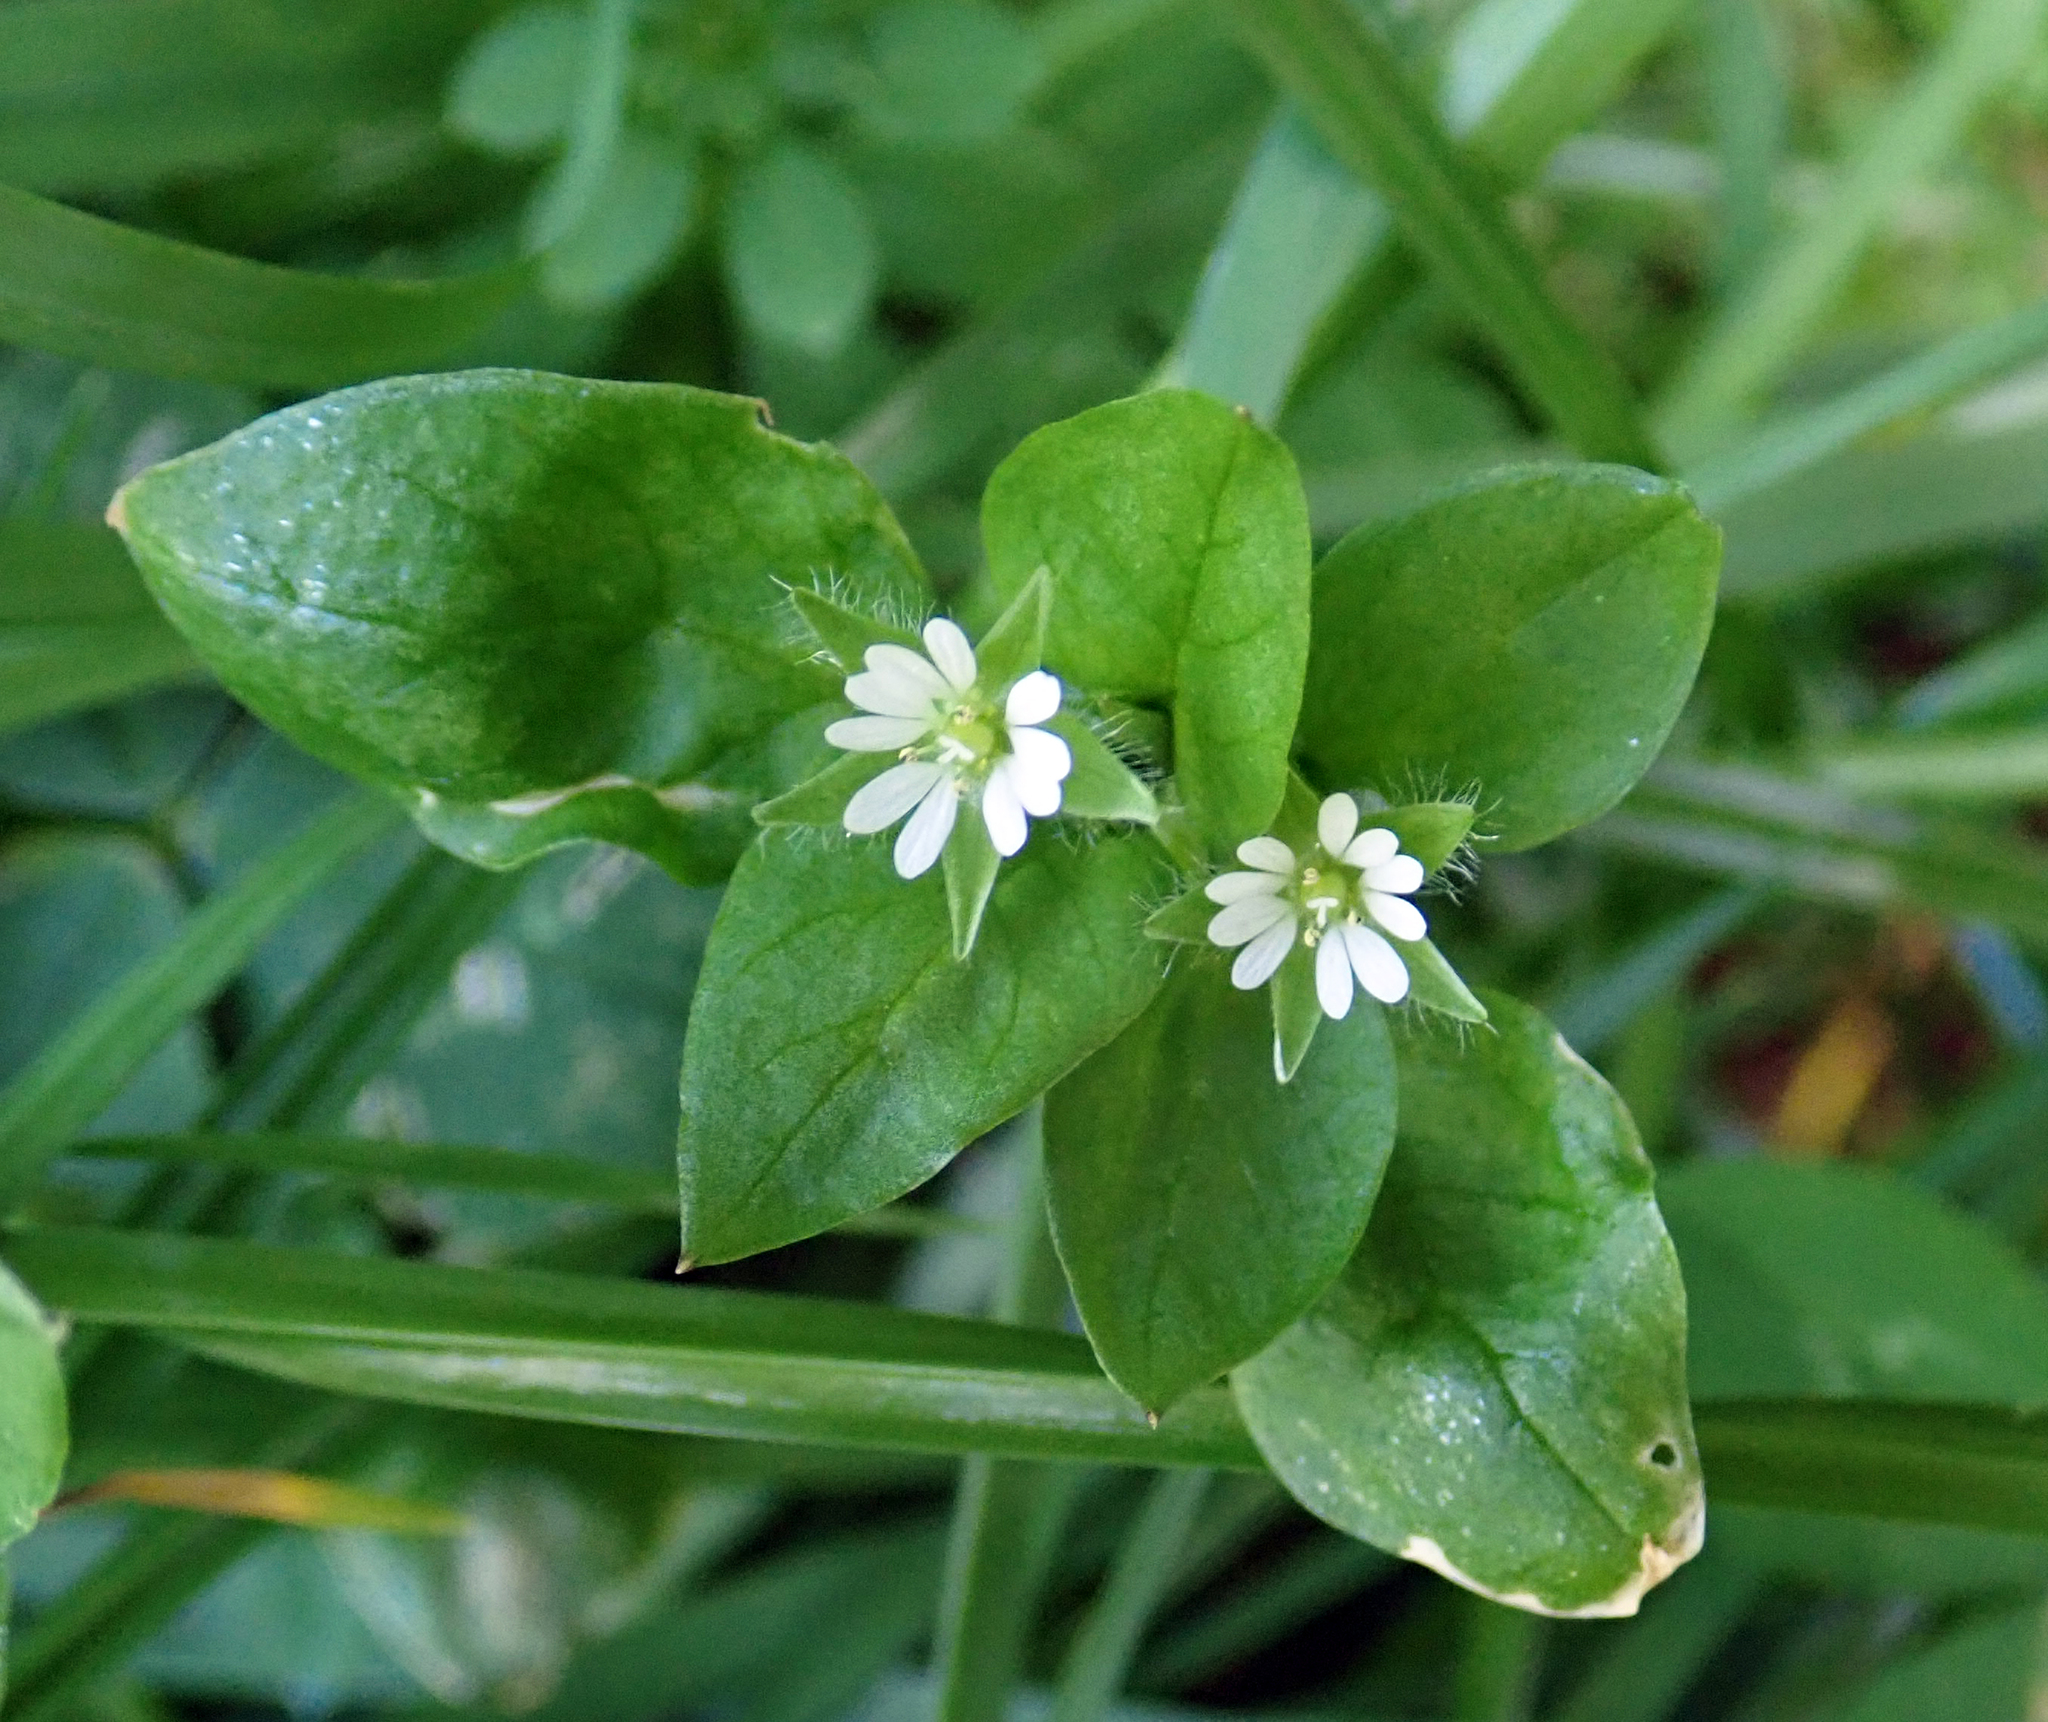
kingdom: Plantae
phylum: Tracheophyta
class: Magnoliopsida
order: Caryophyllales
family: Caryophyllaceae
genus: Stellaria
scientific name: Stellaria media
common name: Common chickweed
